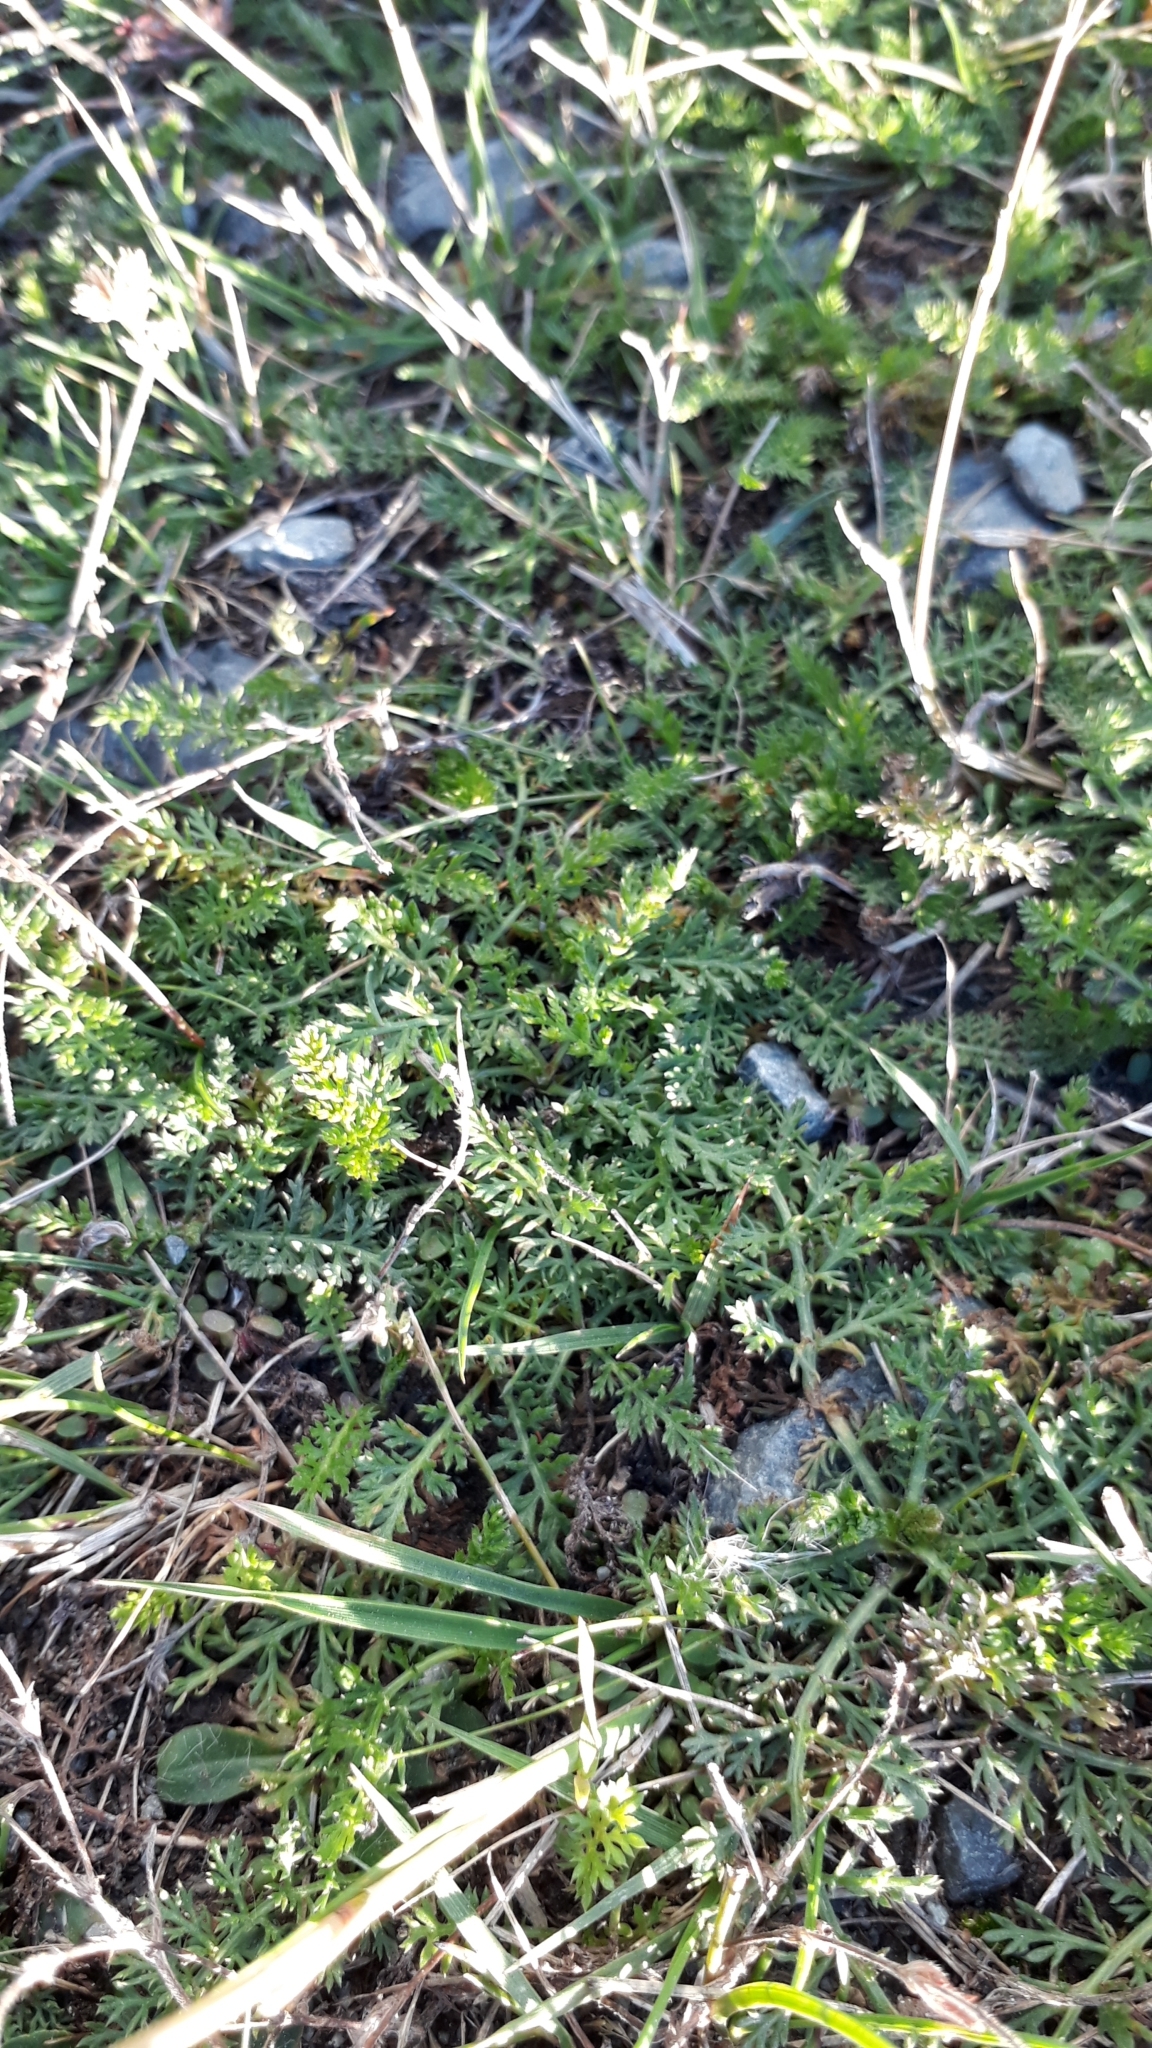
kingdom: Plantae
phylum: Tracheophyta
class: Magnoliopsida
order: Asterales
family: Asteraceae
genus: Achillea
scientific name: Achillea millefolium
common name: Yarrow
